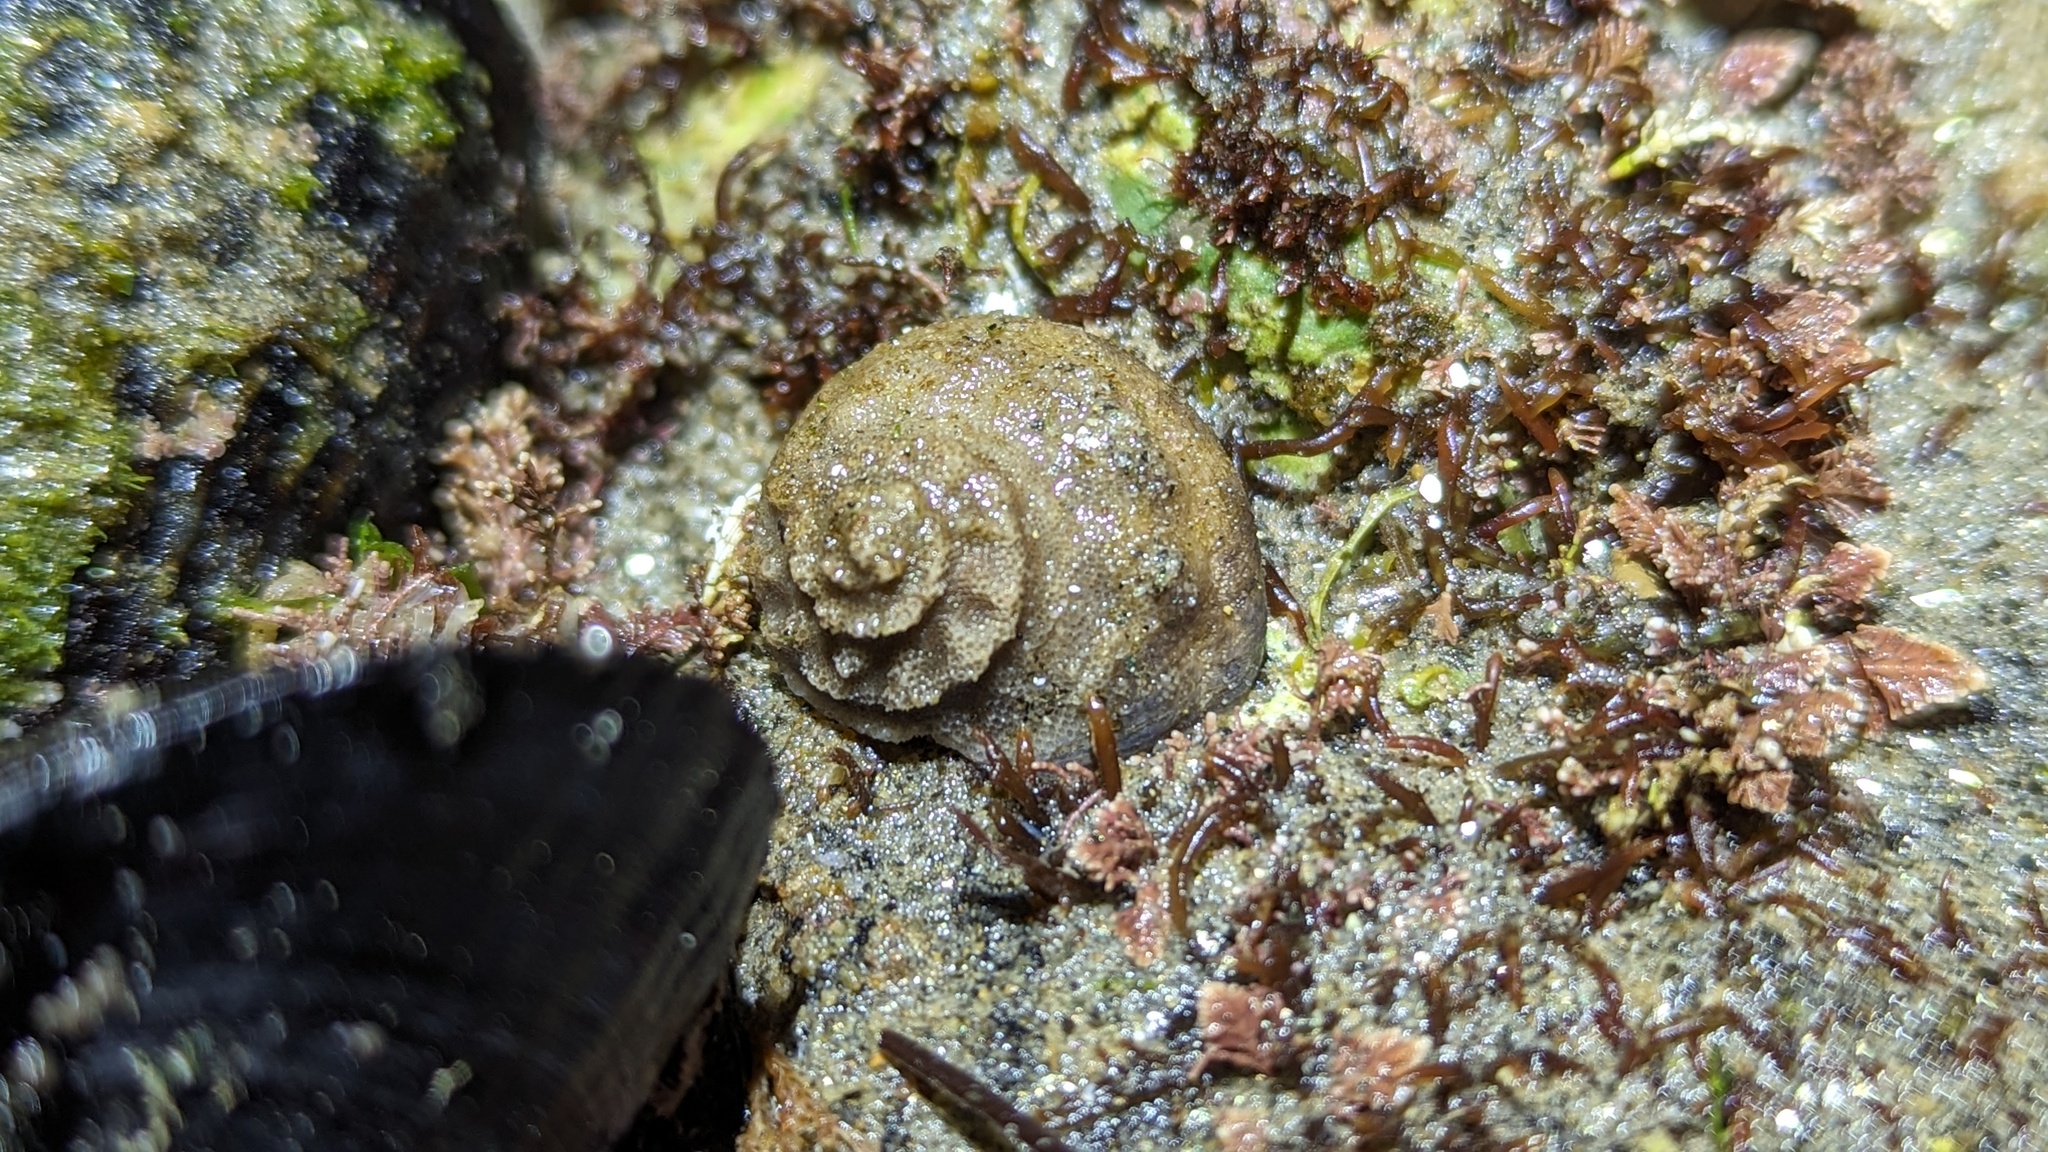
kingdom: Animalia
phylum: Mollusca
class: Gastropoda
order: Trochida
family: Tegulidae
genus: Tegula
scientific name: Tegula aureotincta
